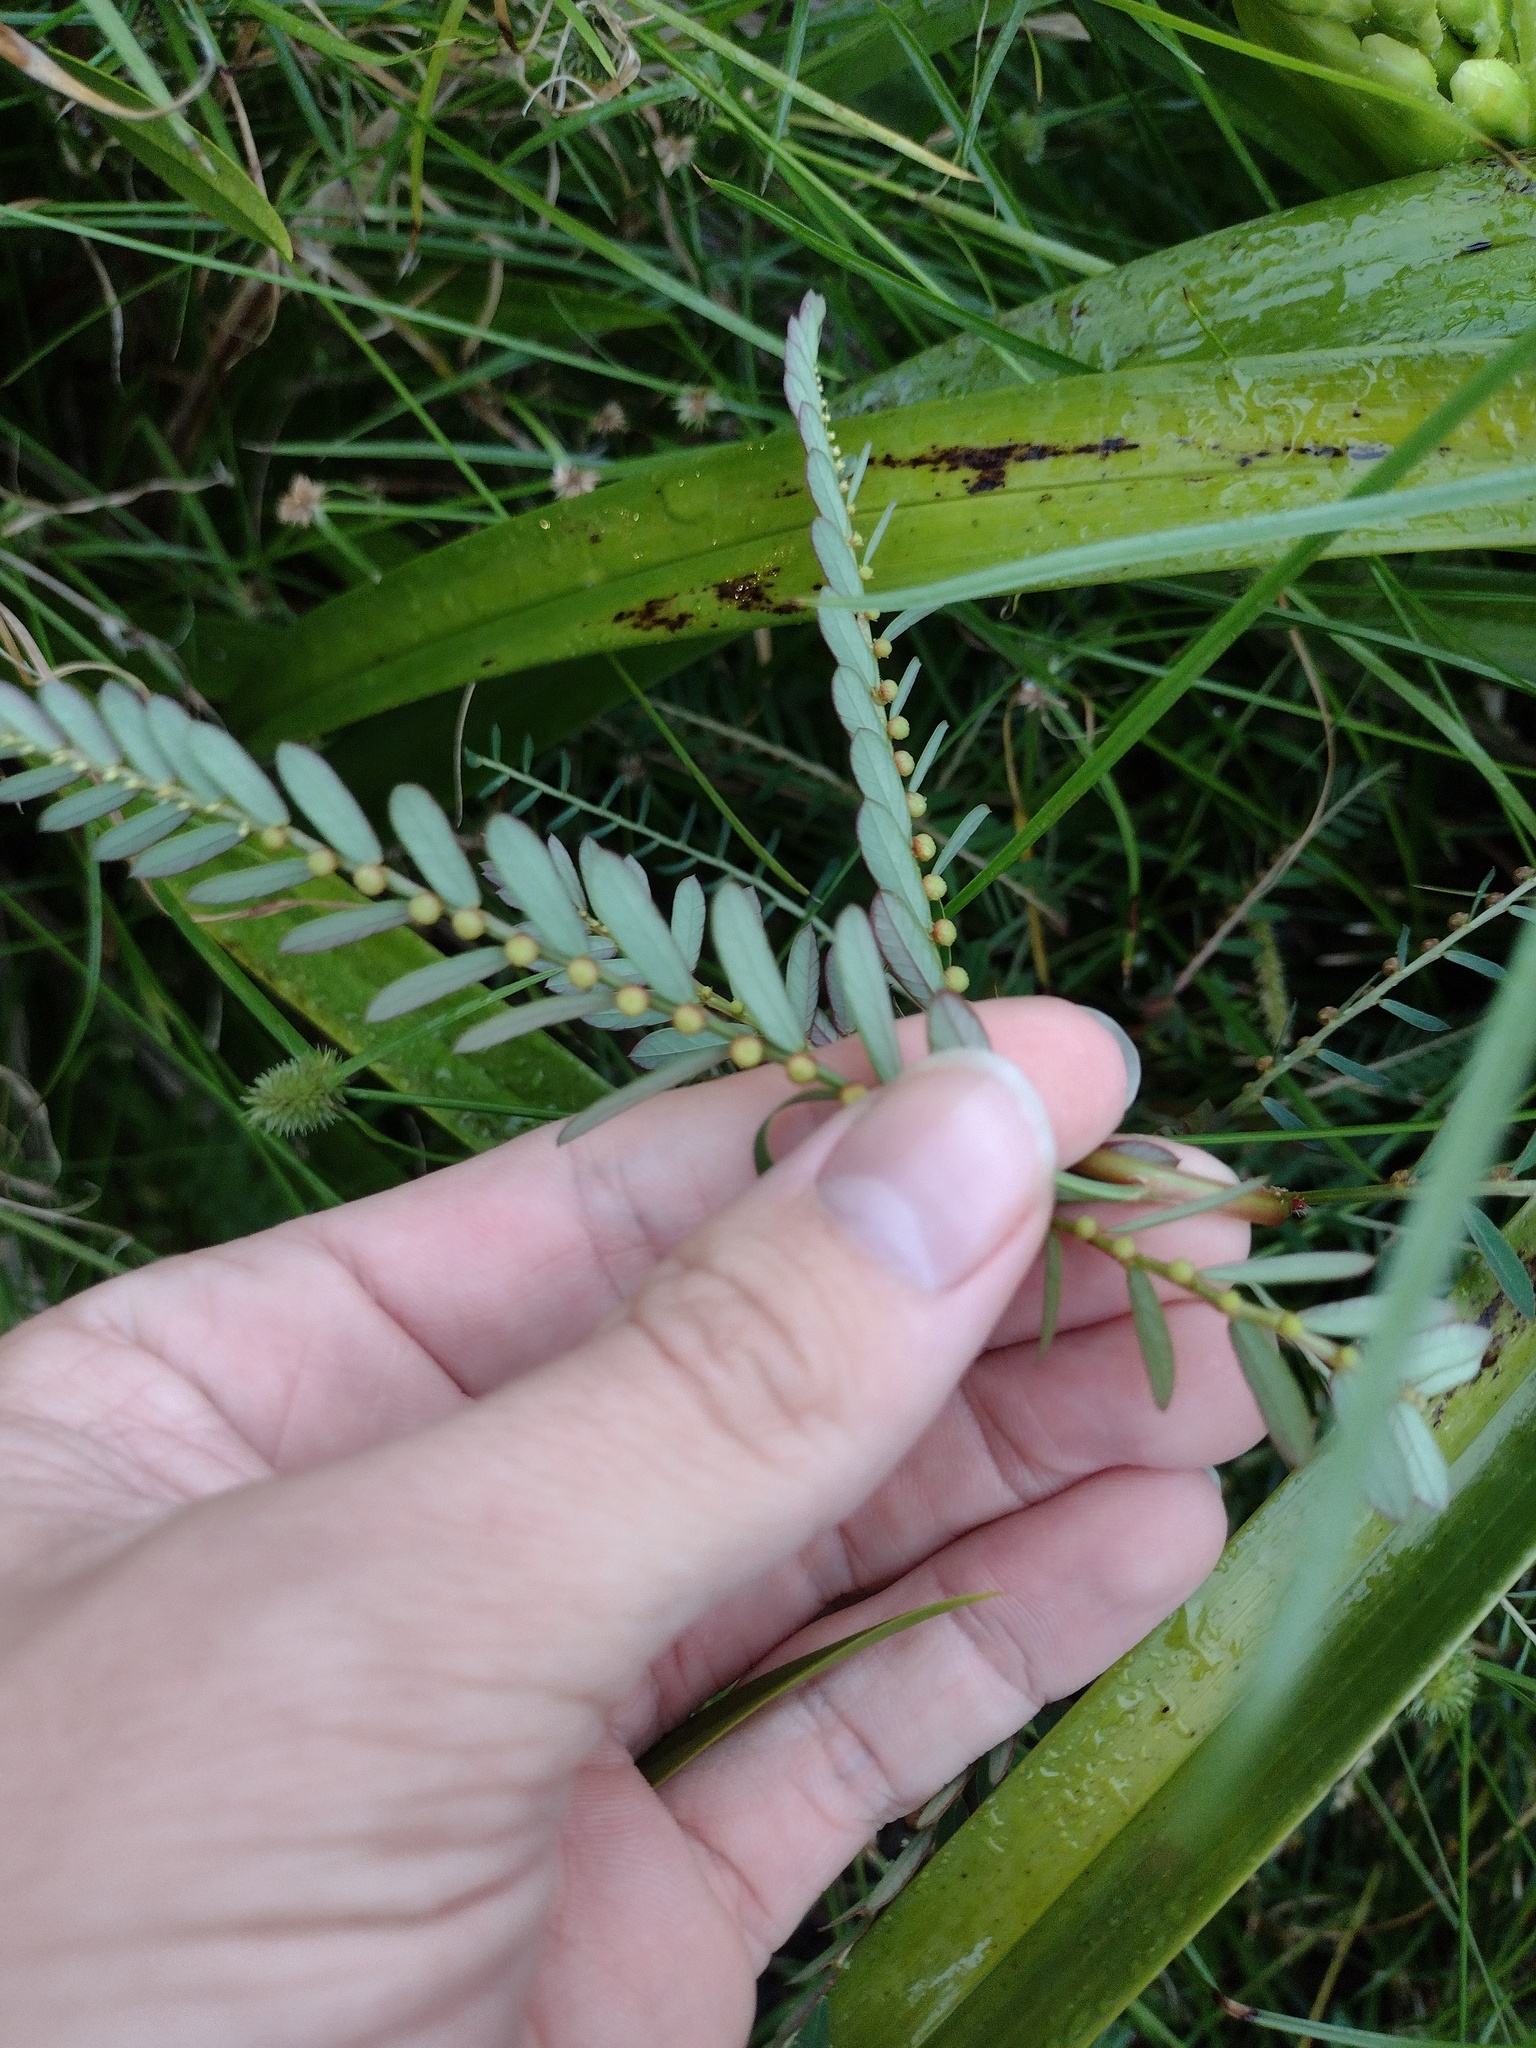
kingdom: Plantae
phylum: Tracheophyta
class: Magnoliopsida
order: Malpighiales
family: Phyllanthaceae
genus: Phyllanthus
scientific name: Phyllanthus urinaria
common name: Chamber bitter
